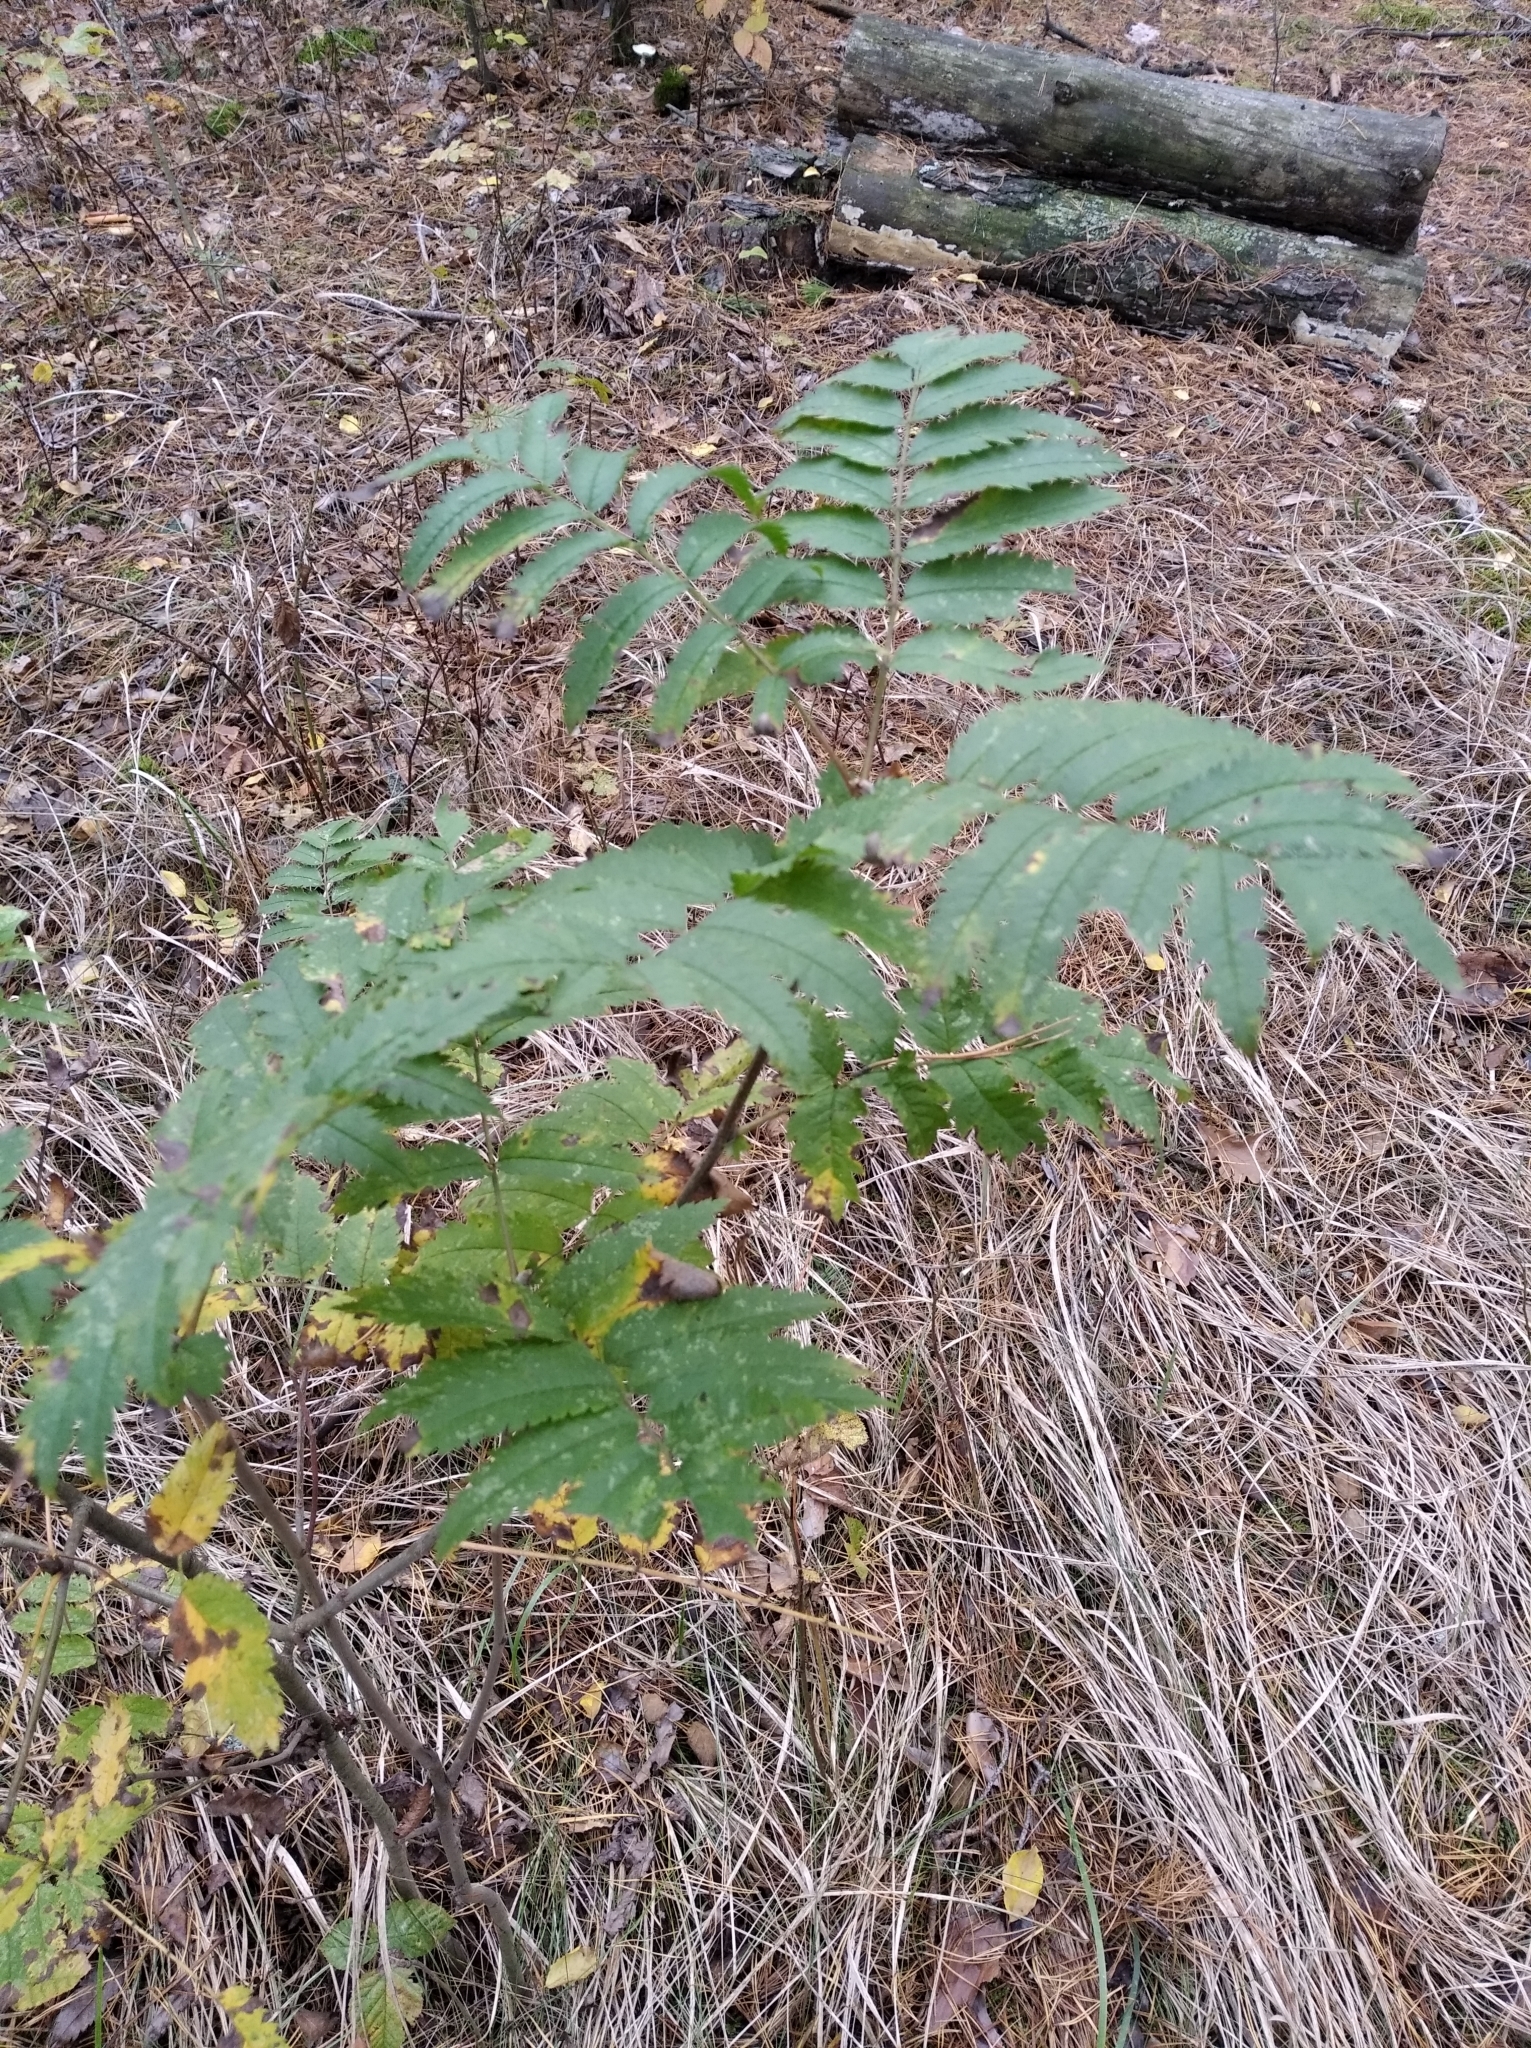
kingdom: Plantae
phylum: Tracheophyta
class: Magnoliopsida
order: Rosales
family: Rosaceae
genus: Sorbus
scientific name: Sorbus aucuparia
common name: Rowan
